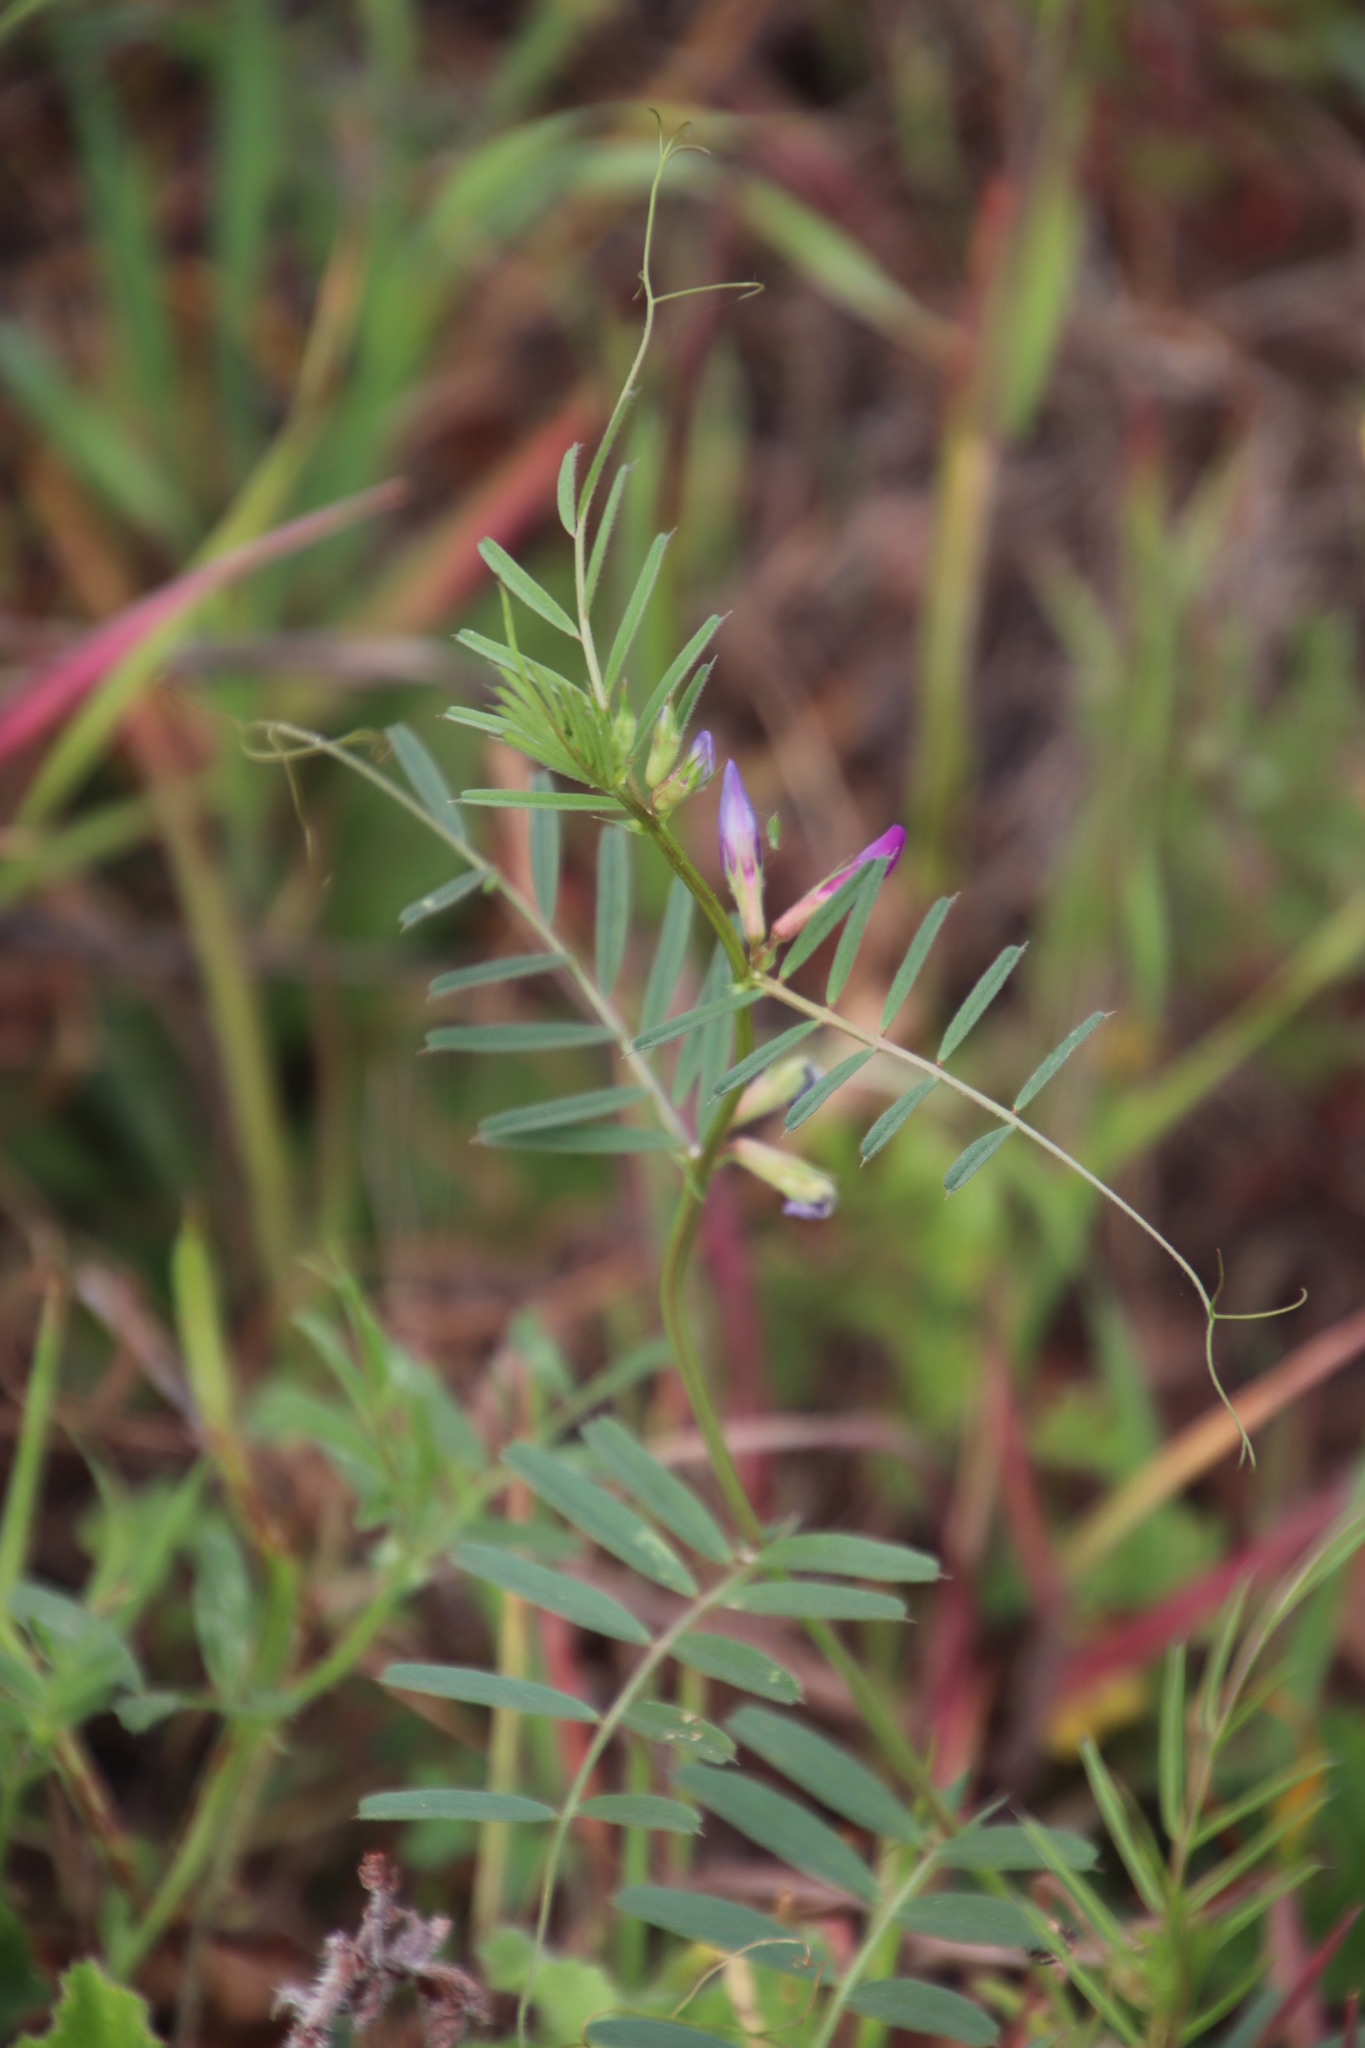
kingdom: Plantae
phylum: Tracheophyta
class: Magnoliopsida
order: Fabales
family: Fabaceae
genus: Vicia
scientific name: Vicia sativa
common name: Garden vetch
